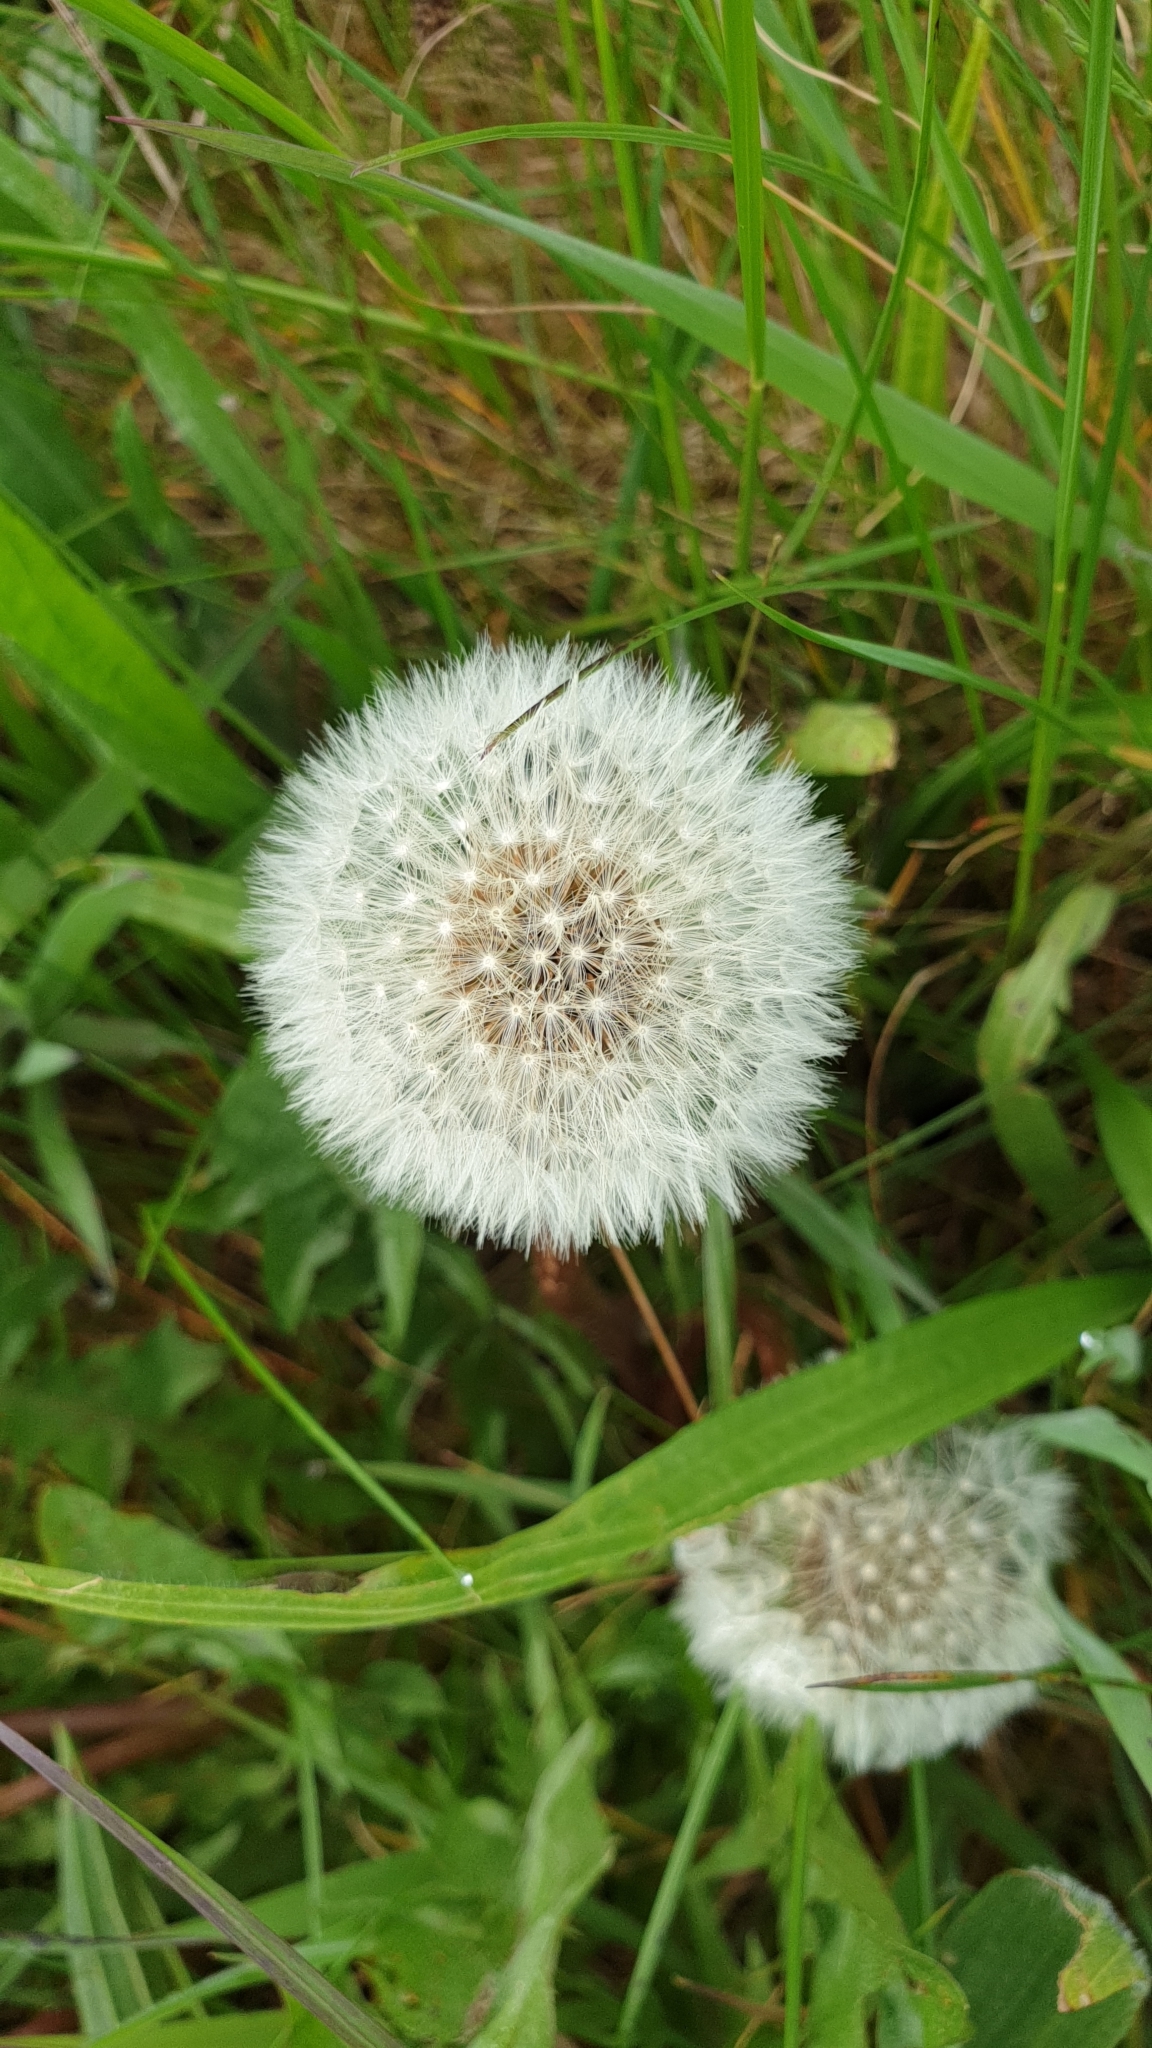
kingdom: Plantae
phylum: Tracheophyta
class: Magnoliopsida
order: Asterales
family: Asteraceae
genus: Taraxacum
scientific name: Taraxacum officinale
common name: Common dandelion
